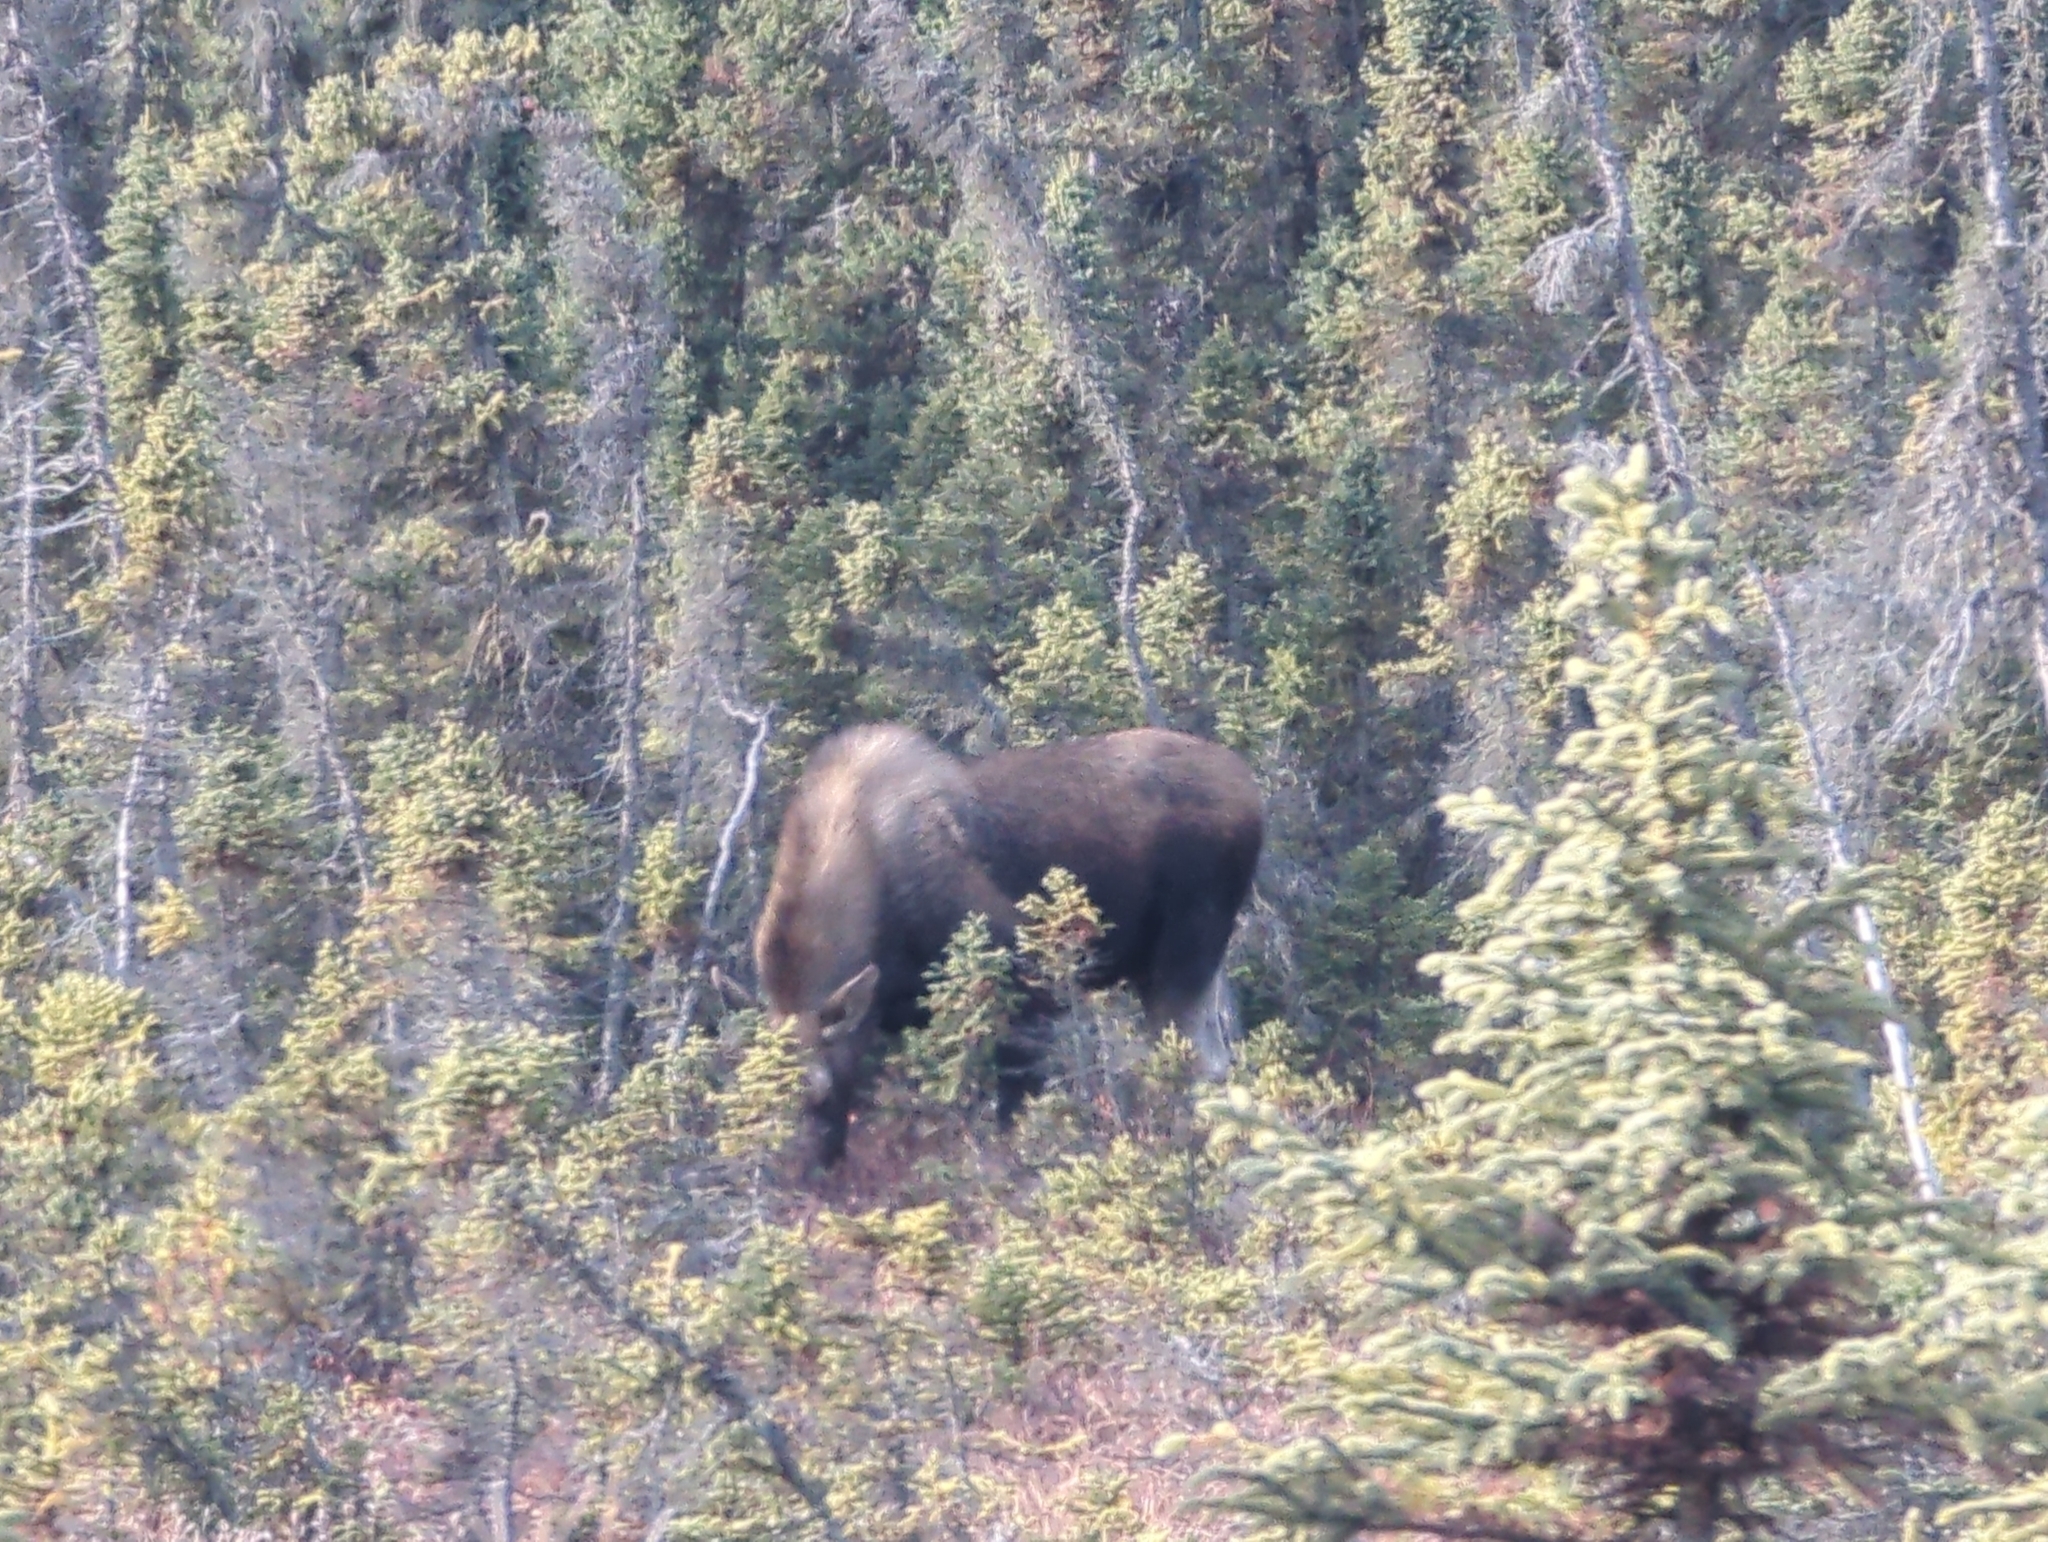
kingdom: Animalia
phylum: Chordata
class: Mammalia
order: Artiodactyla
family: Cervidae
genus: Alces
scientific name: Alces alces
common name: Moose
